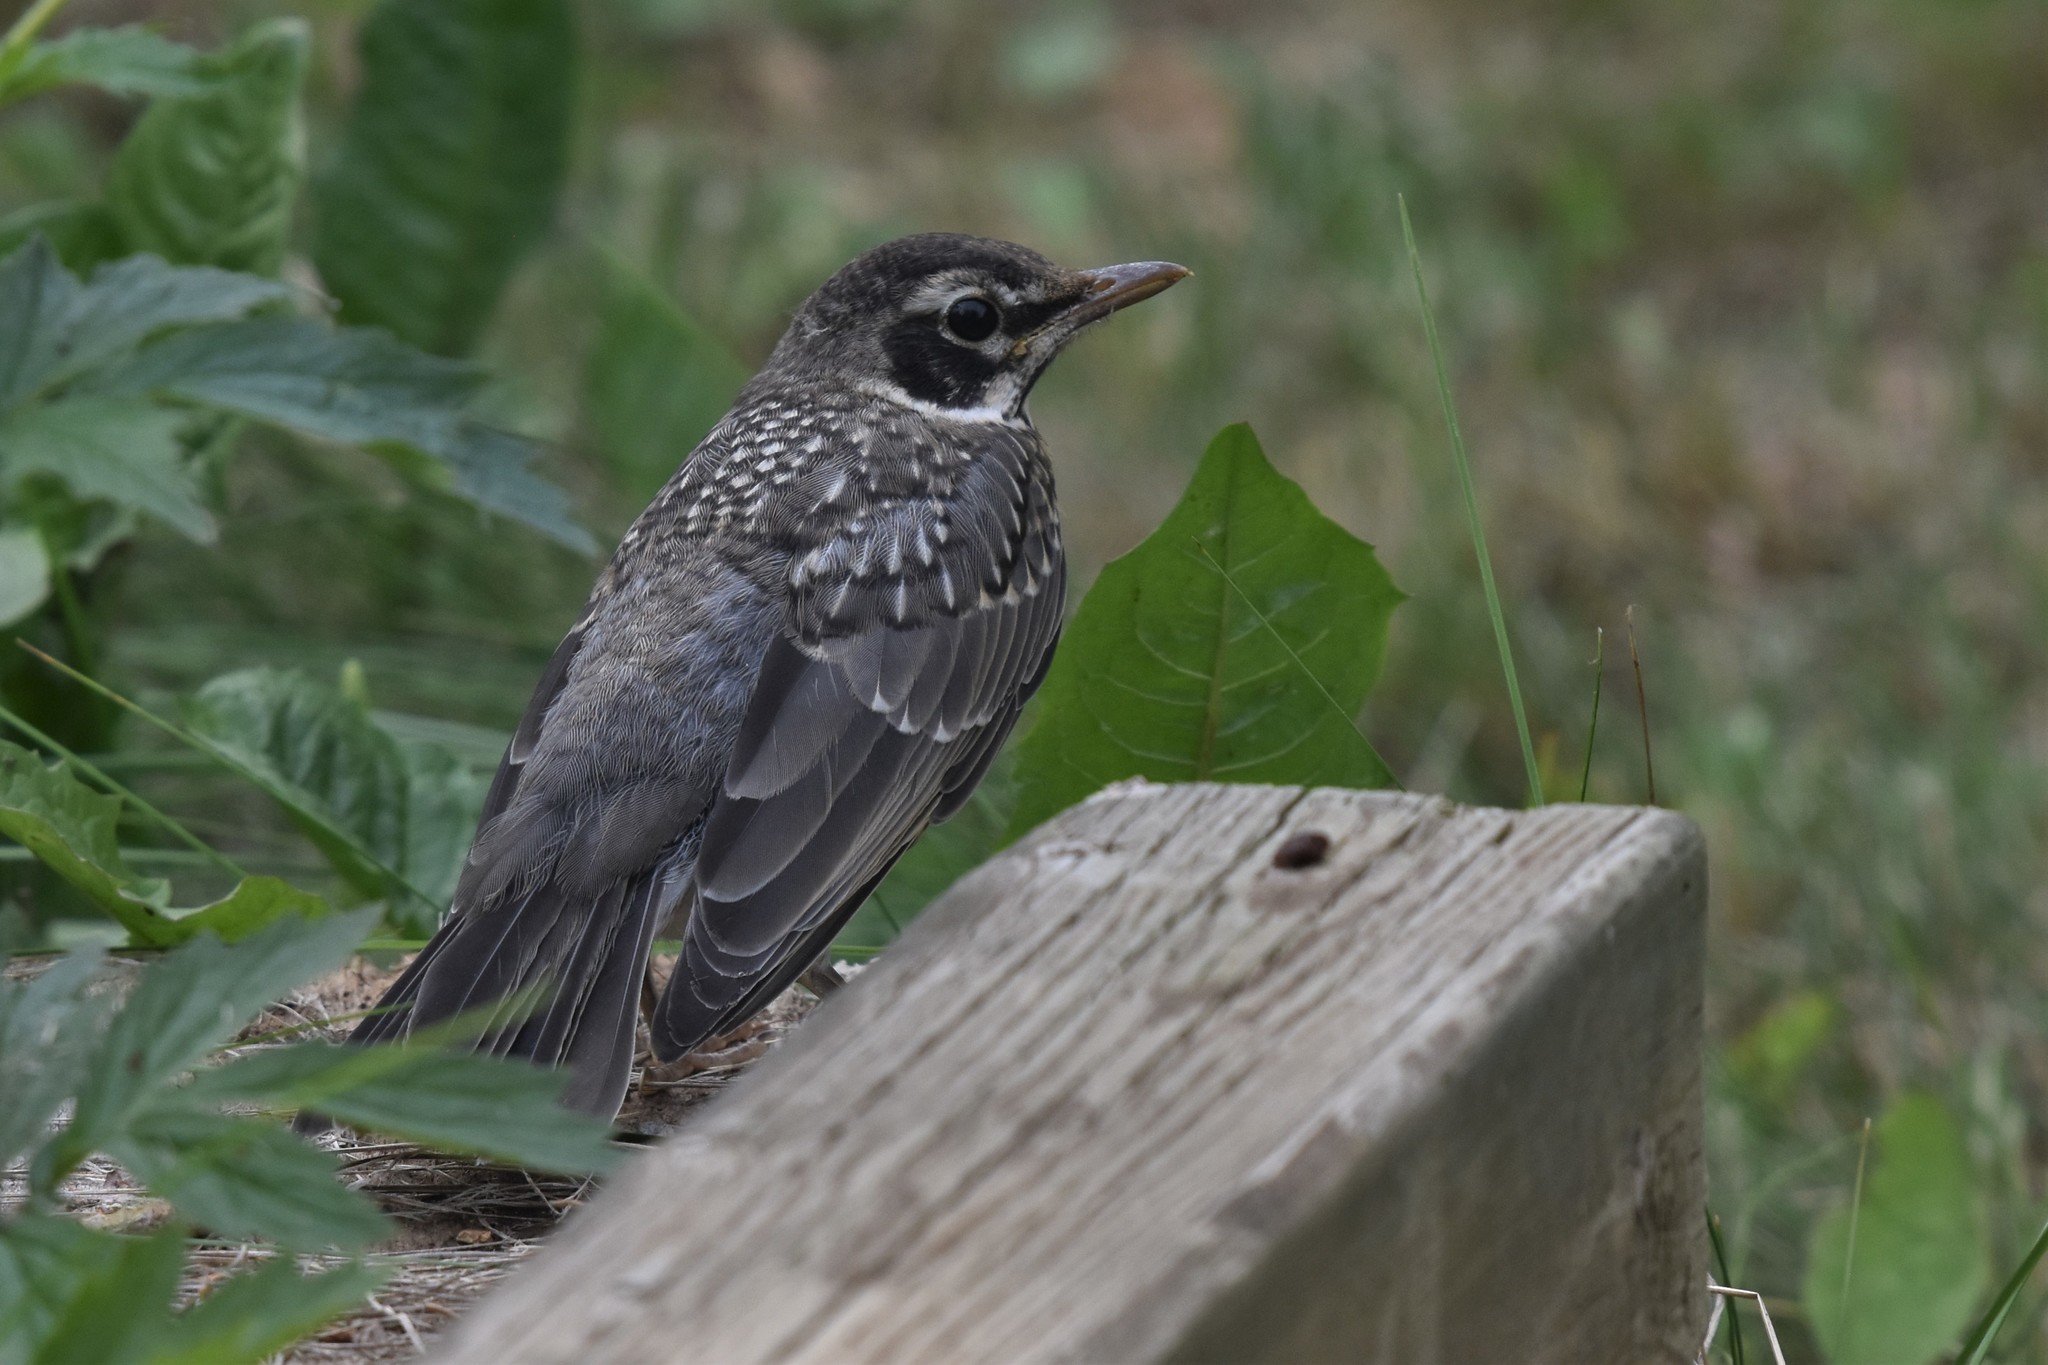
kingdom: Animalia
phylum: Chordata
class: Aves
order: Passeriformes
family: Turdidae
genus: Turdus
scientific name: Turdus migratorius
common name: American robin
